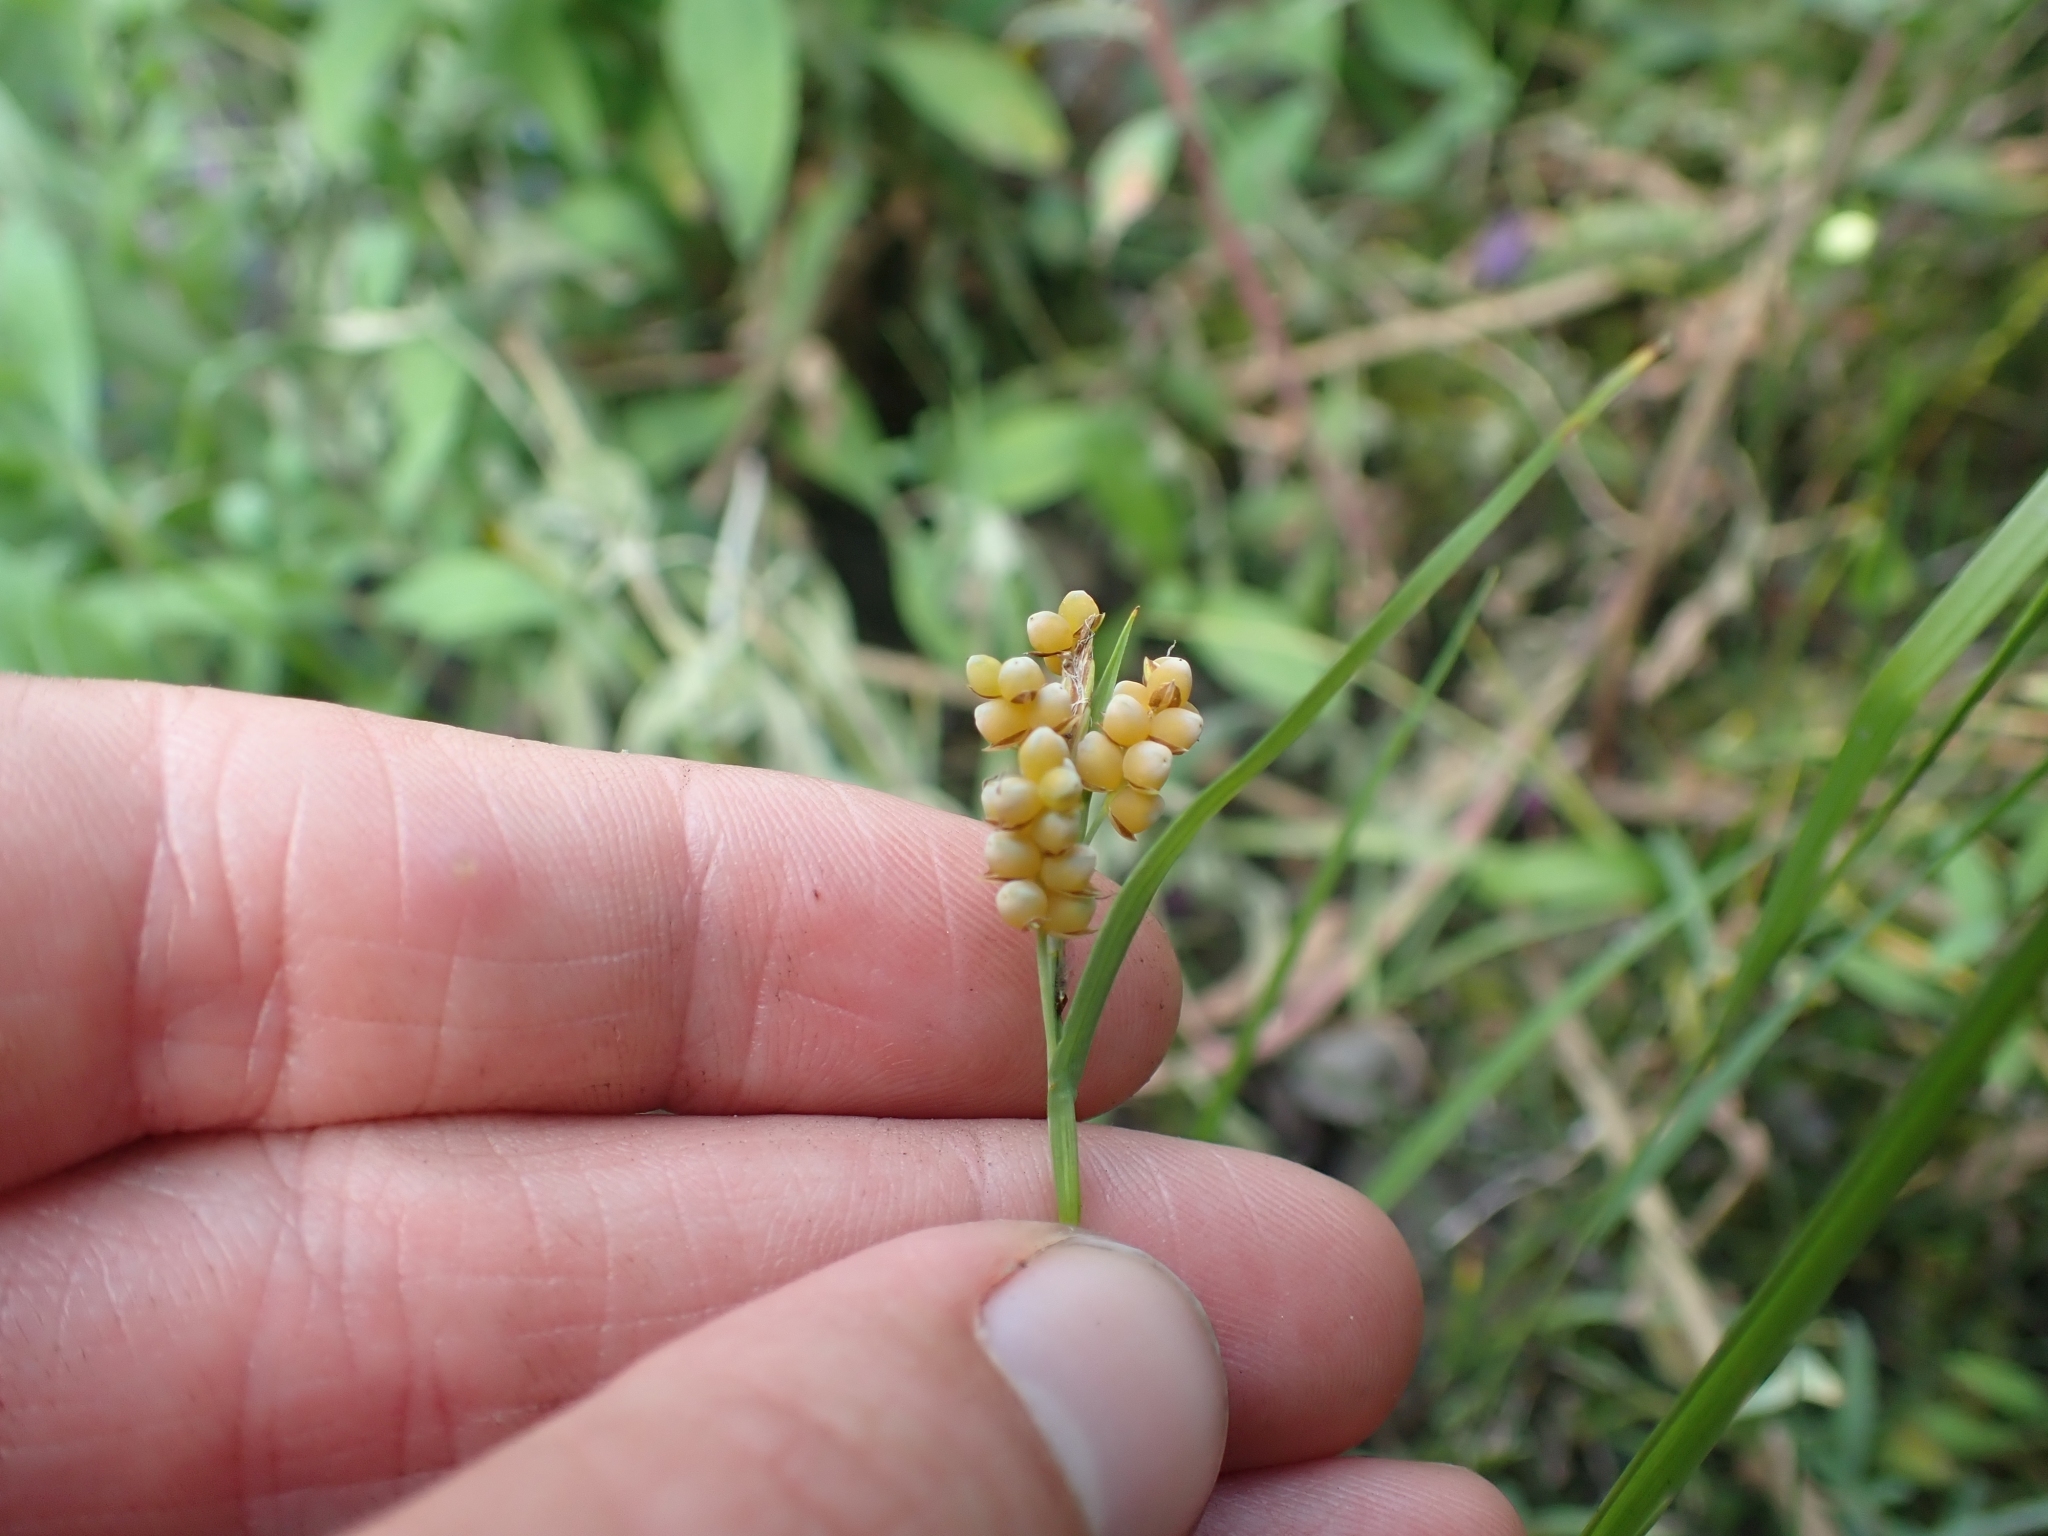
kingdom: Plantae
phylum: Tracheophyta
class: Liliopsida
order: Poales
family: Cyperaceae
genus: Carex
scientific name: Carex aurea
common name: Golden sedge
